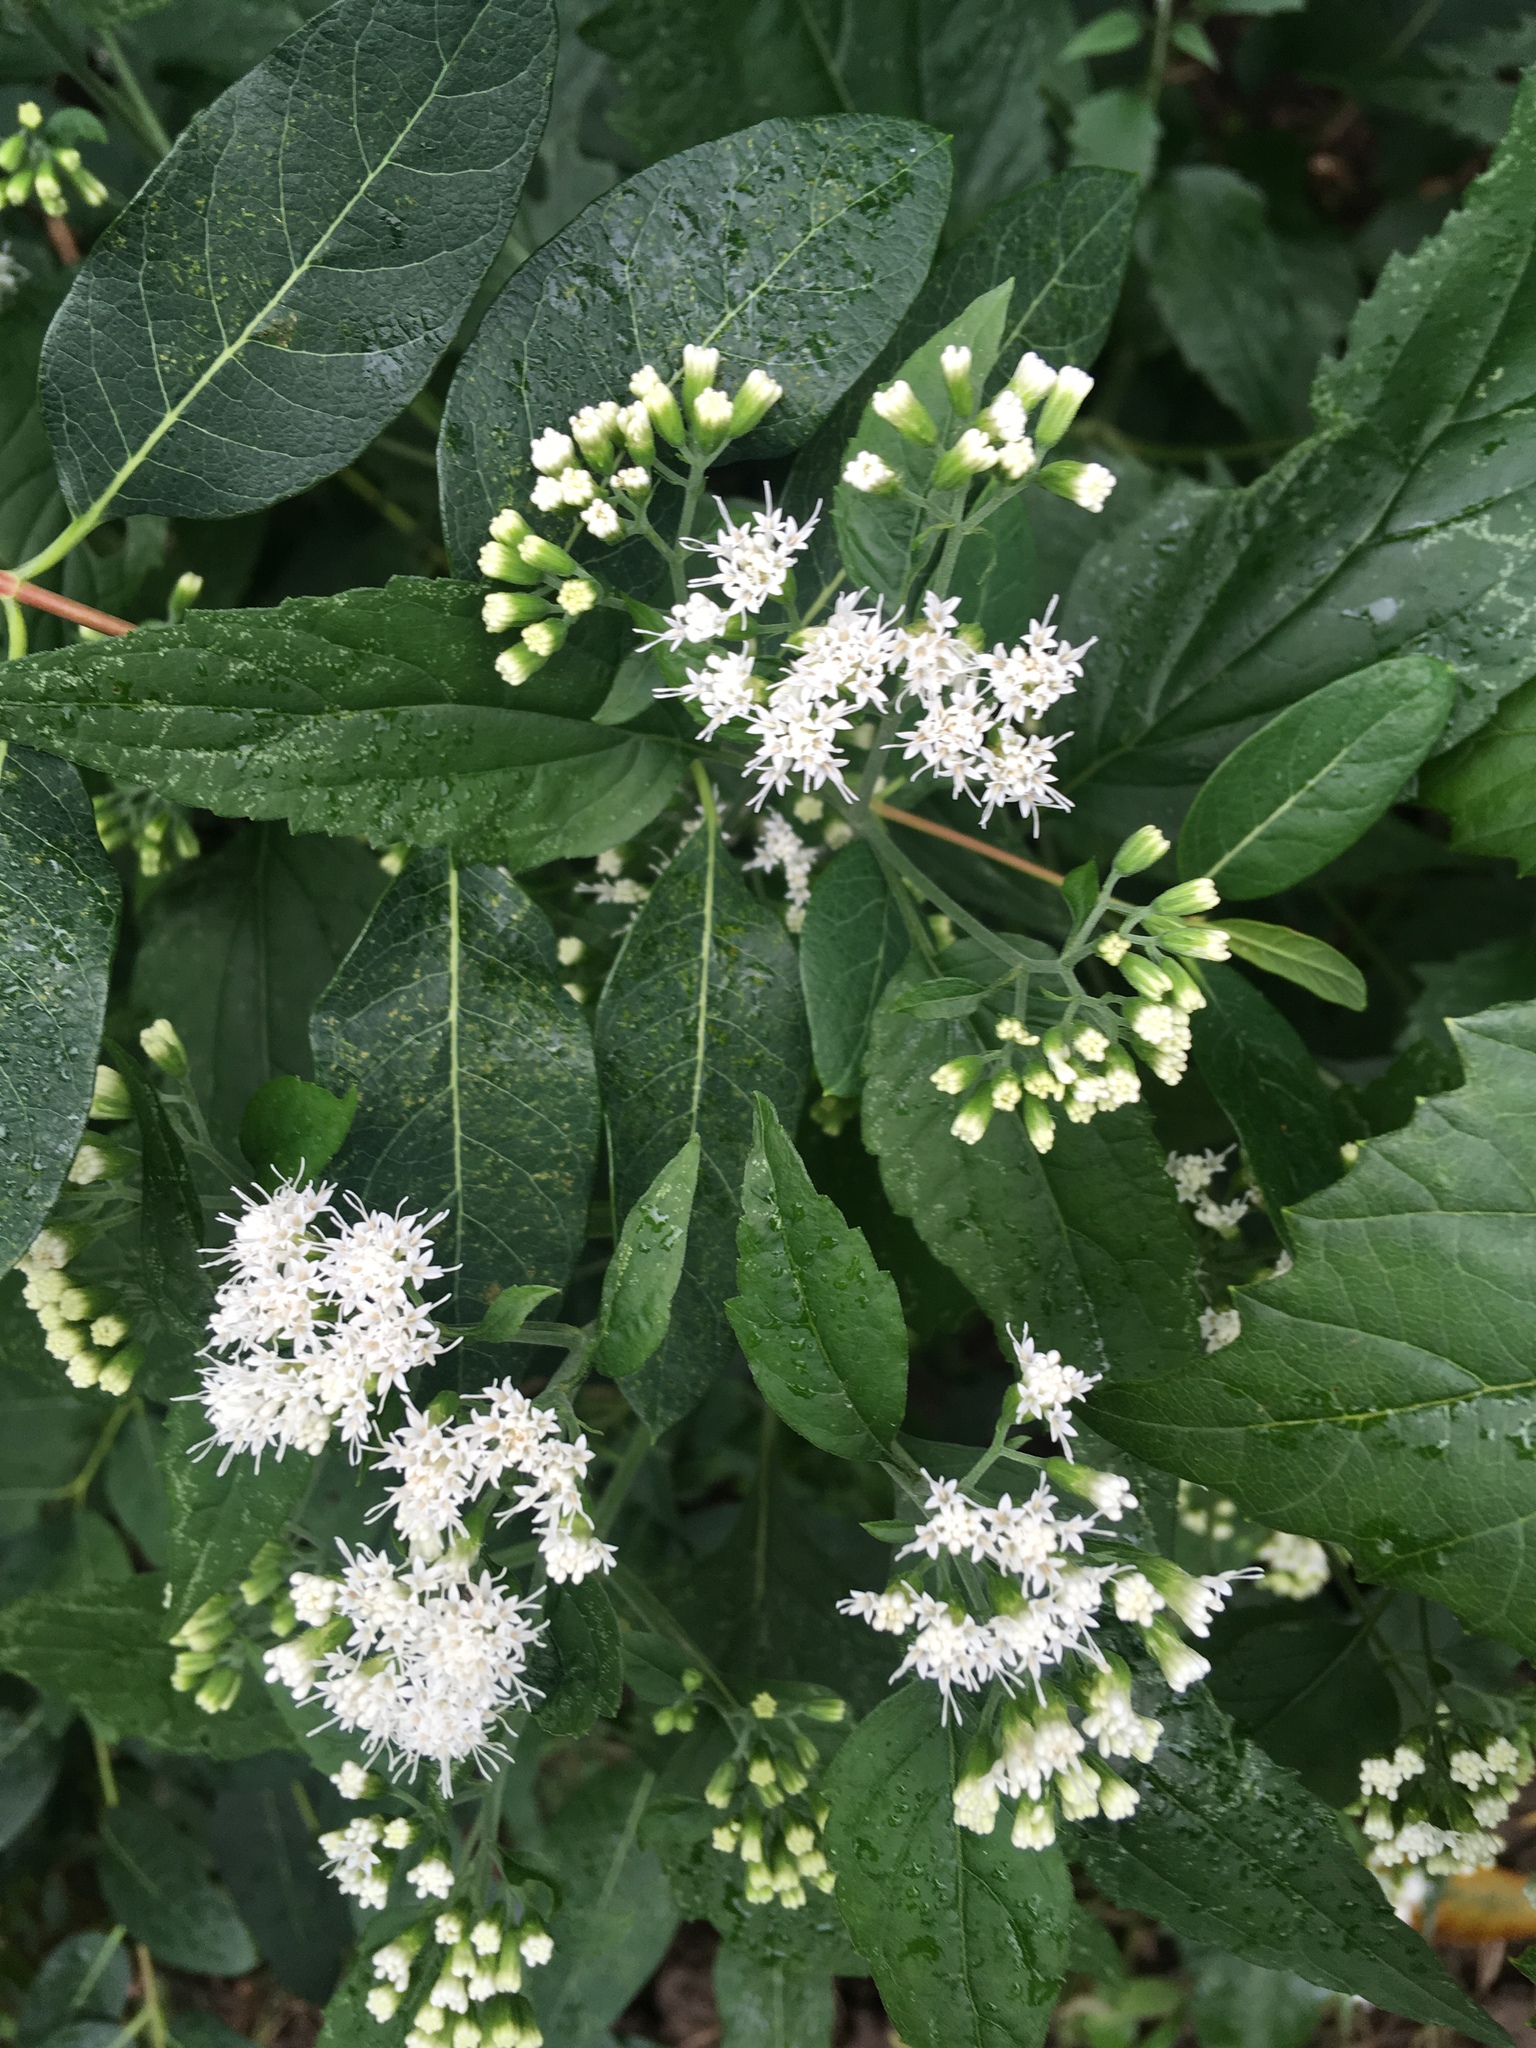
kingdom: Plantae
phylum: Tracheophyta
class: Magnoliopsida
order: Asterales
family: Asteraceae
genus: Ageratina
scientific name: Ageratina altissima
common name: White snakeroot
